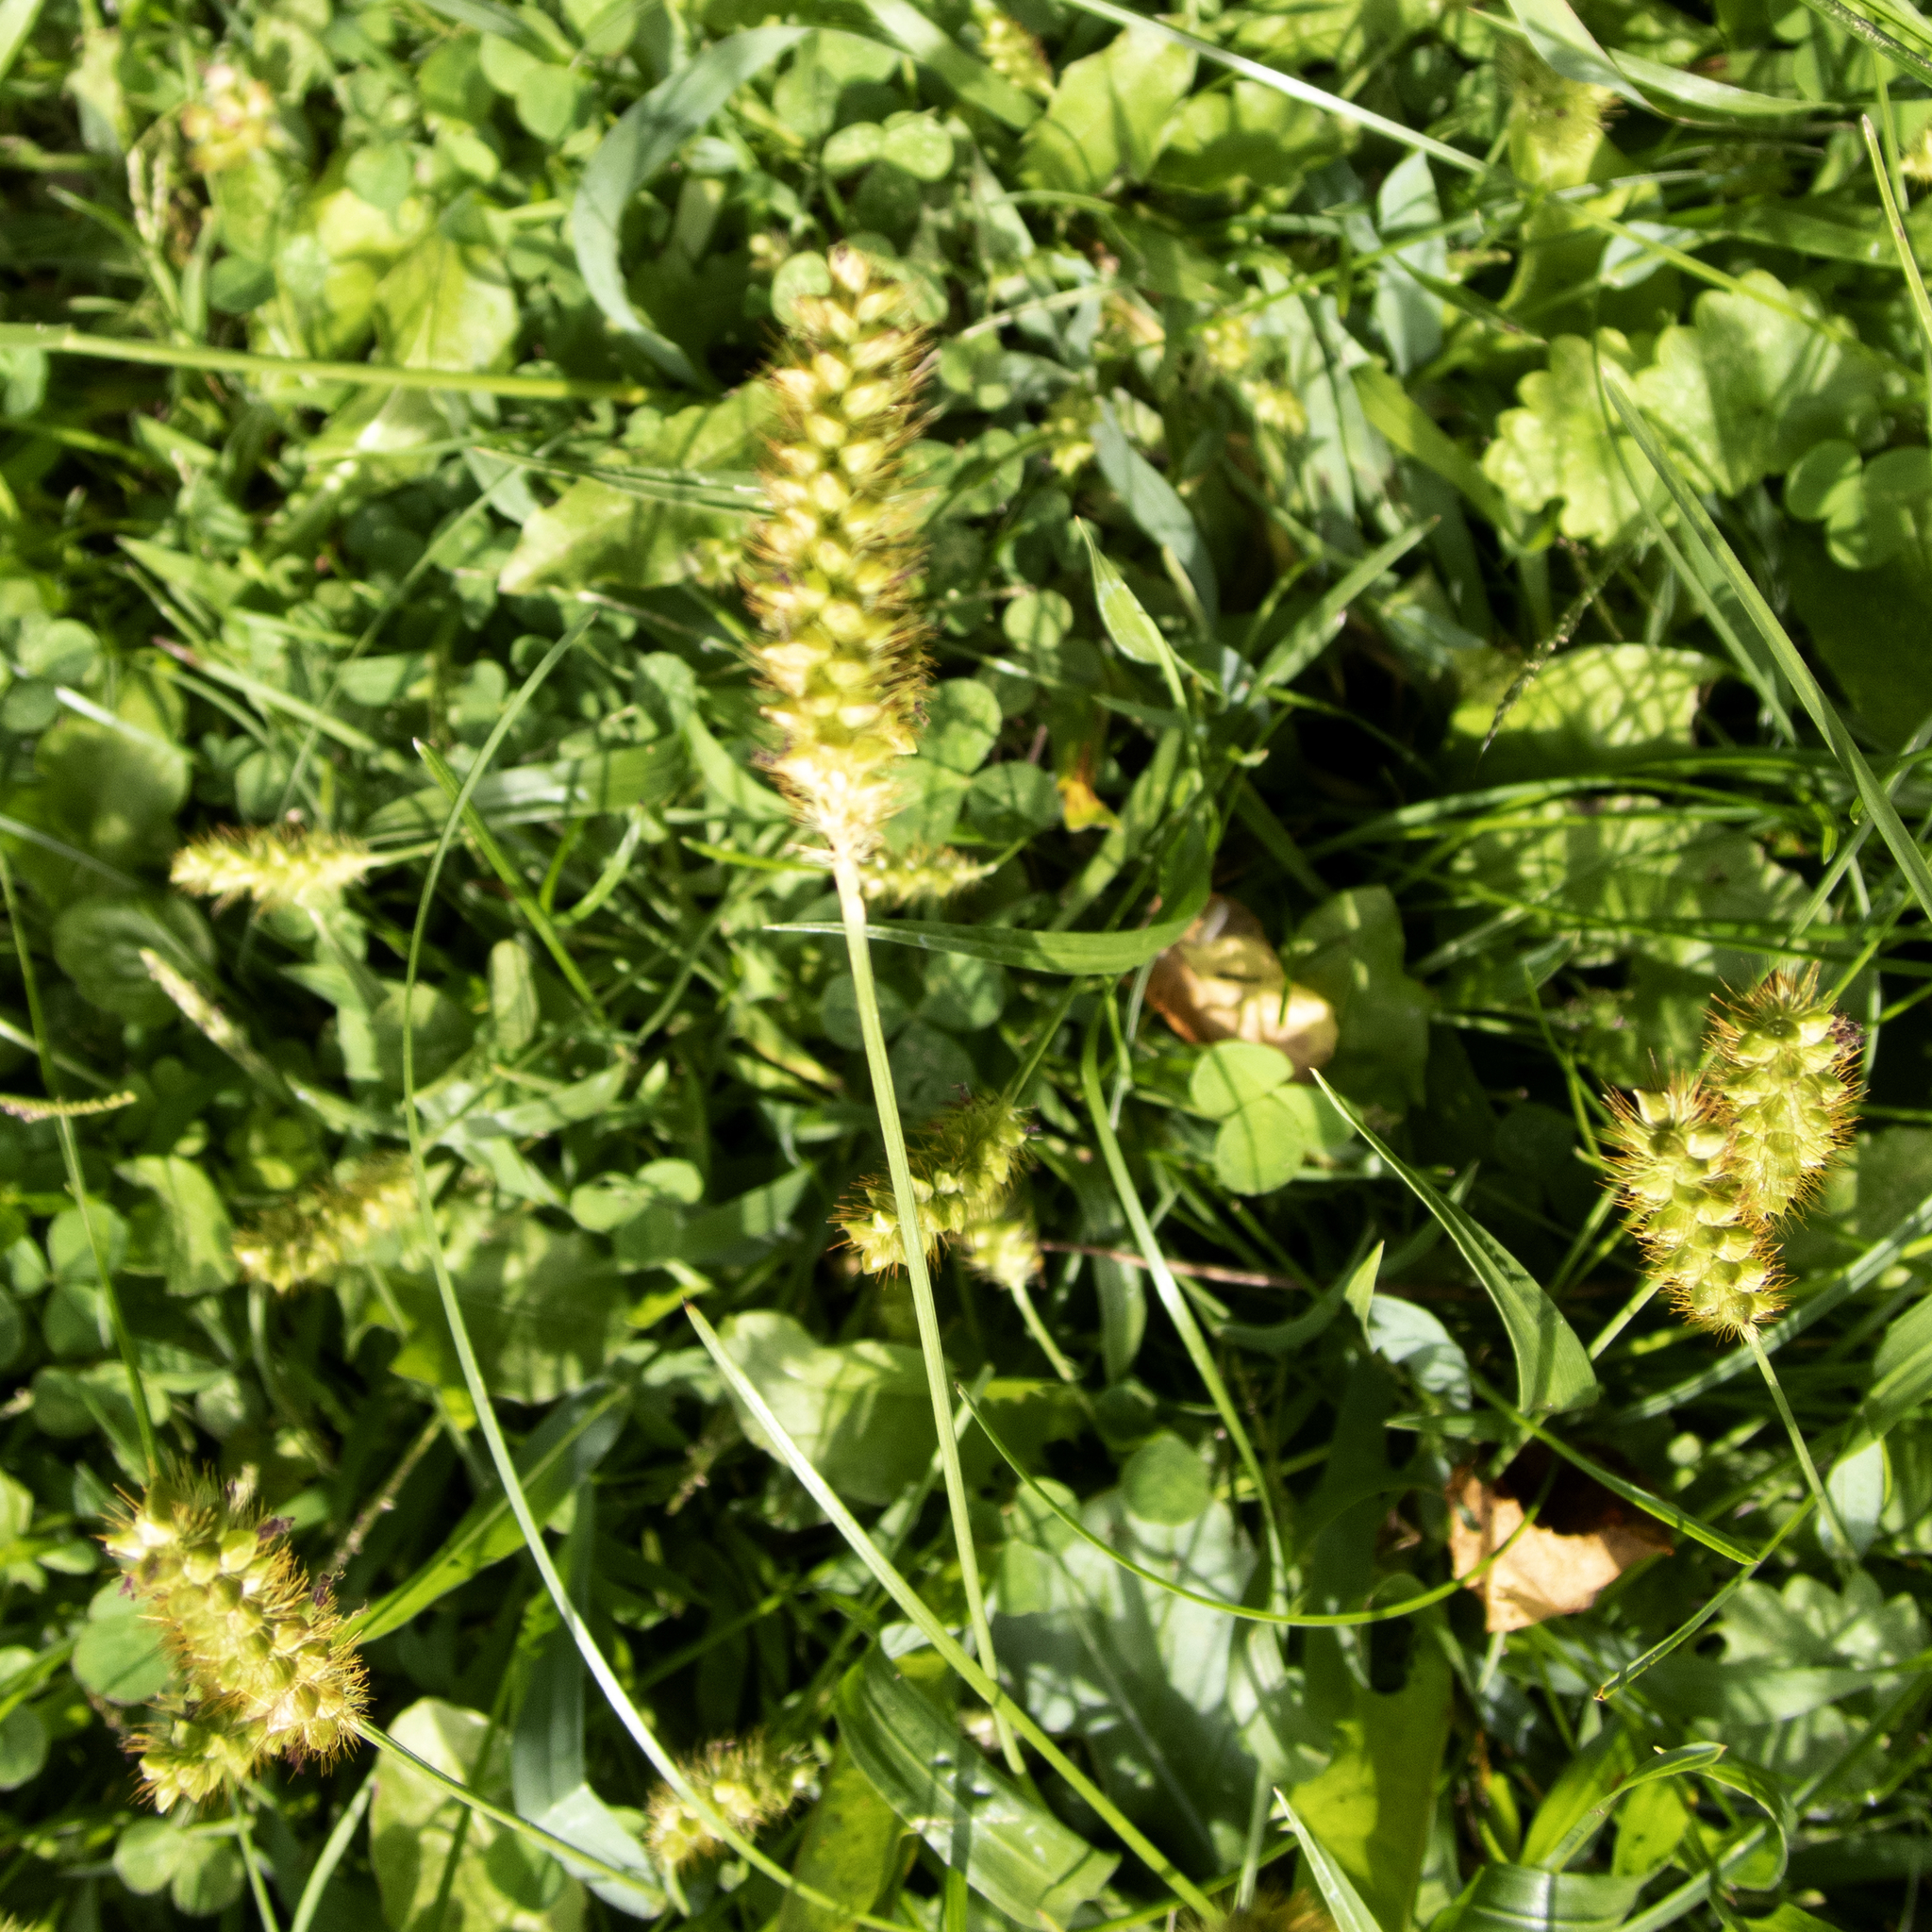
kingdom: Plantae
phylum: Tracheophyta
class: Liliopsida
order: Poales
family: Poaceae
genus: Setaria
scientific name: Setaria pumila
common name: Yellow bristle-grass
